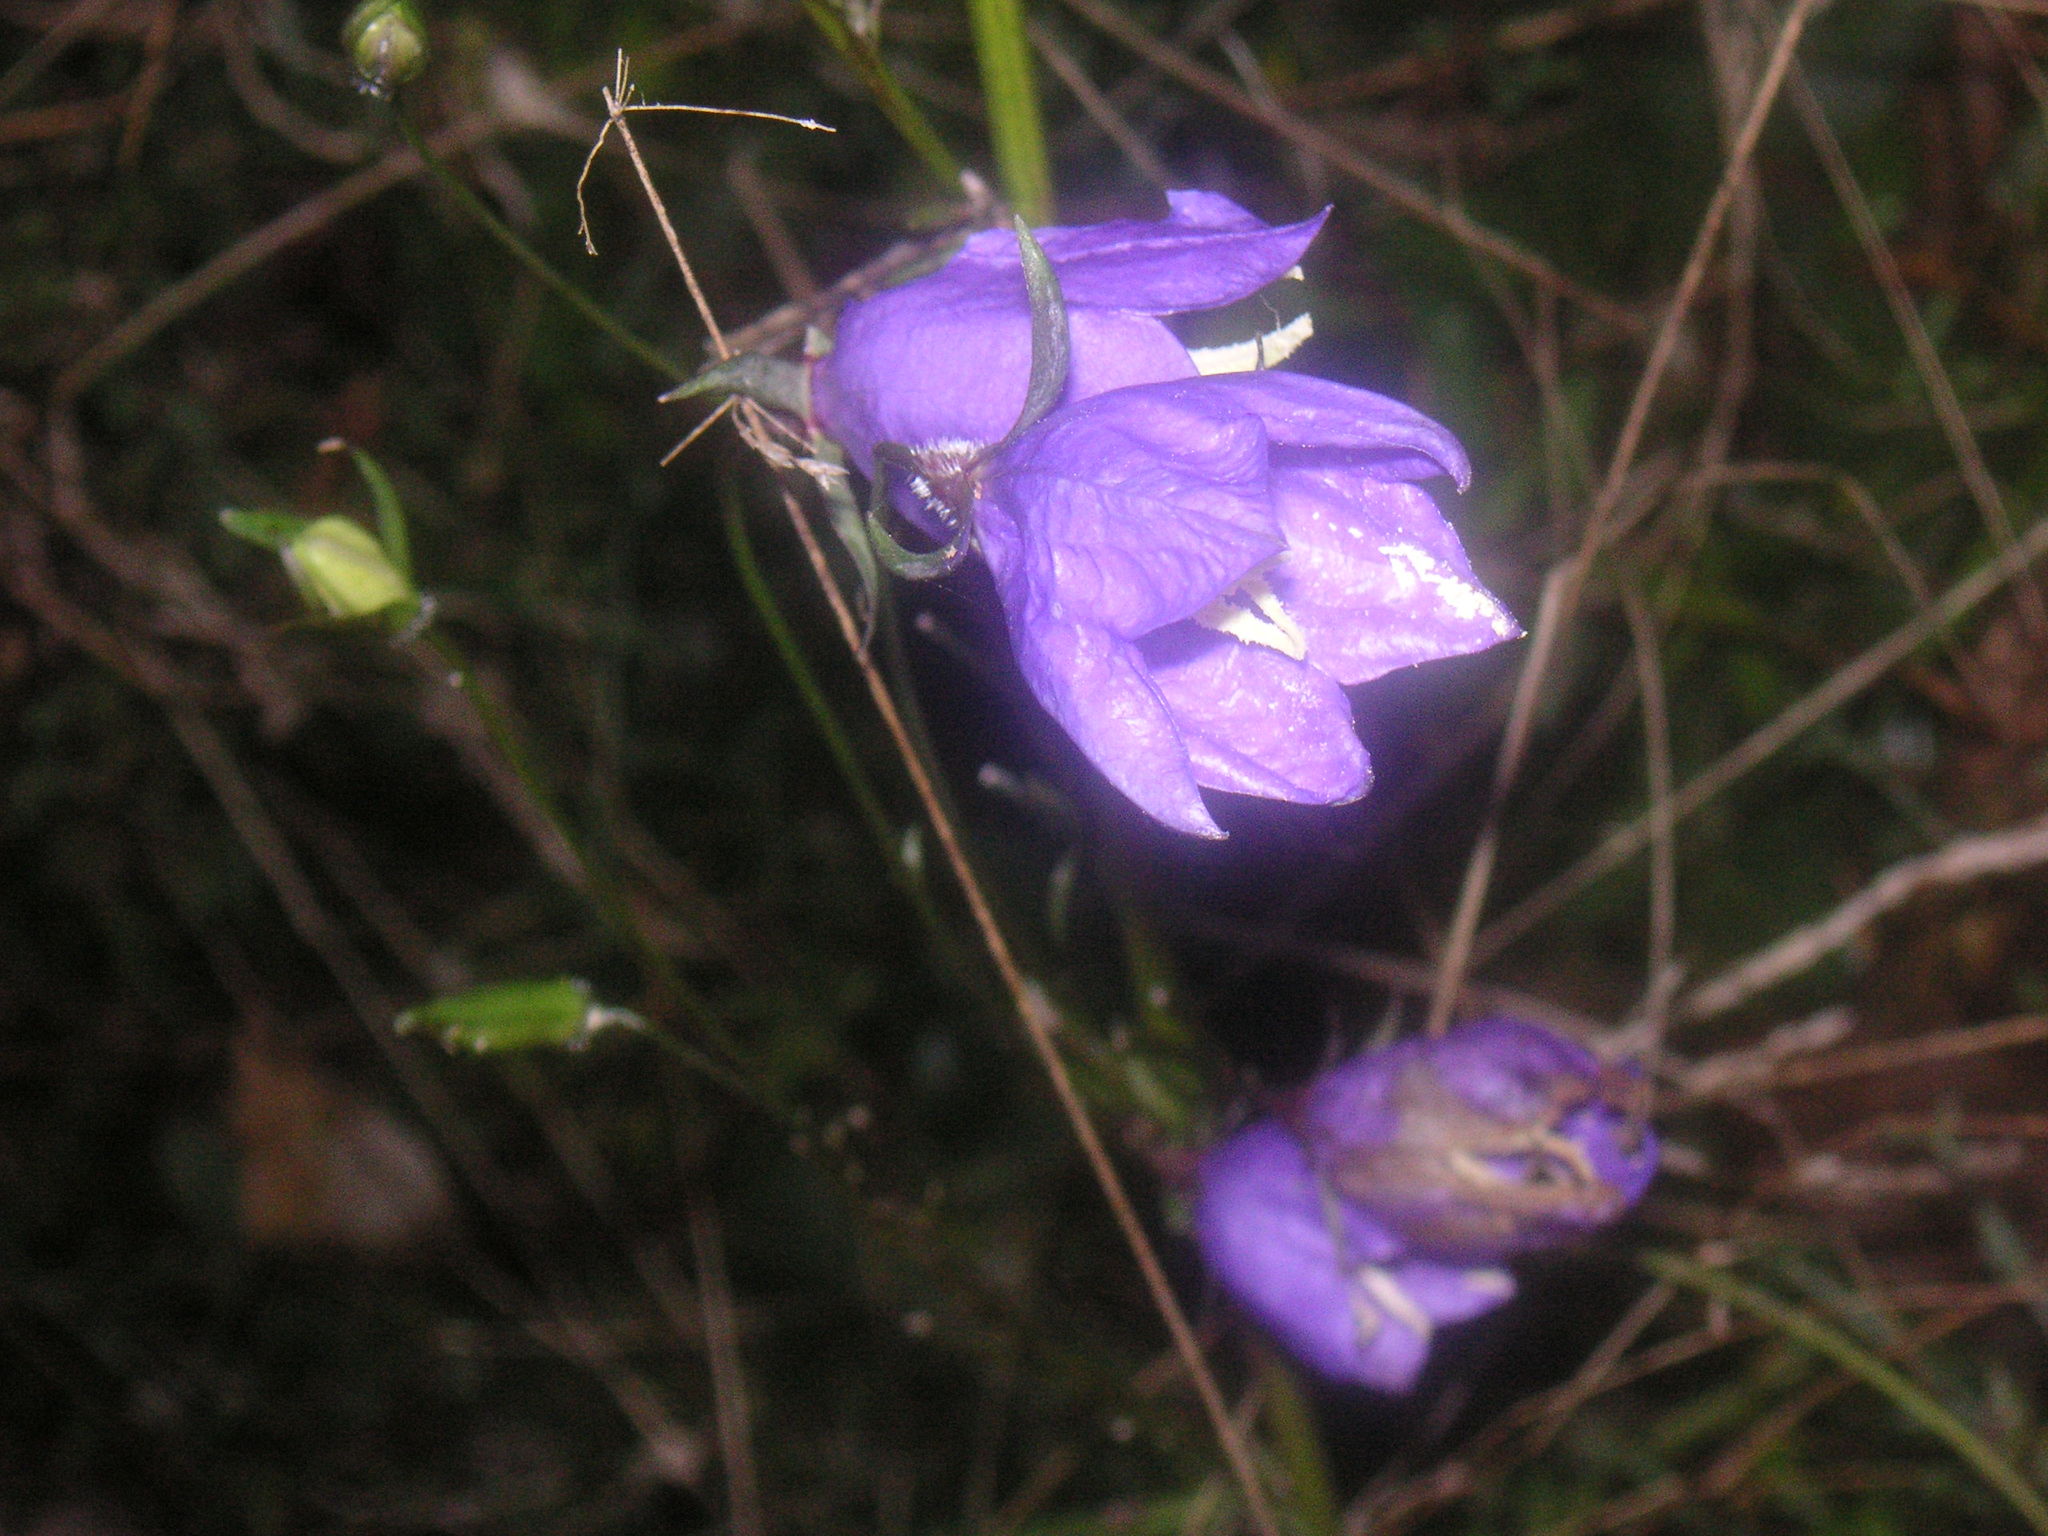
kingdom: Plantae
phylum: Tracheophyta
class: Magnoliopsida
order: Asterales
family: Campanulaceae
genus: Campanula
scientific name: Campanula persicifolia
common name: Peach-leaved bellflower
